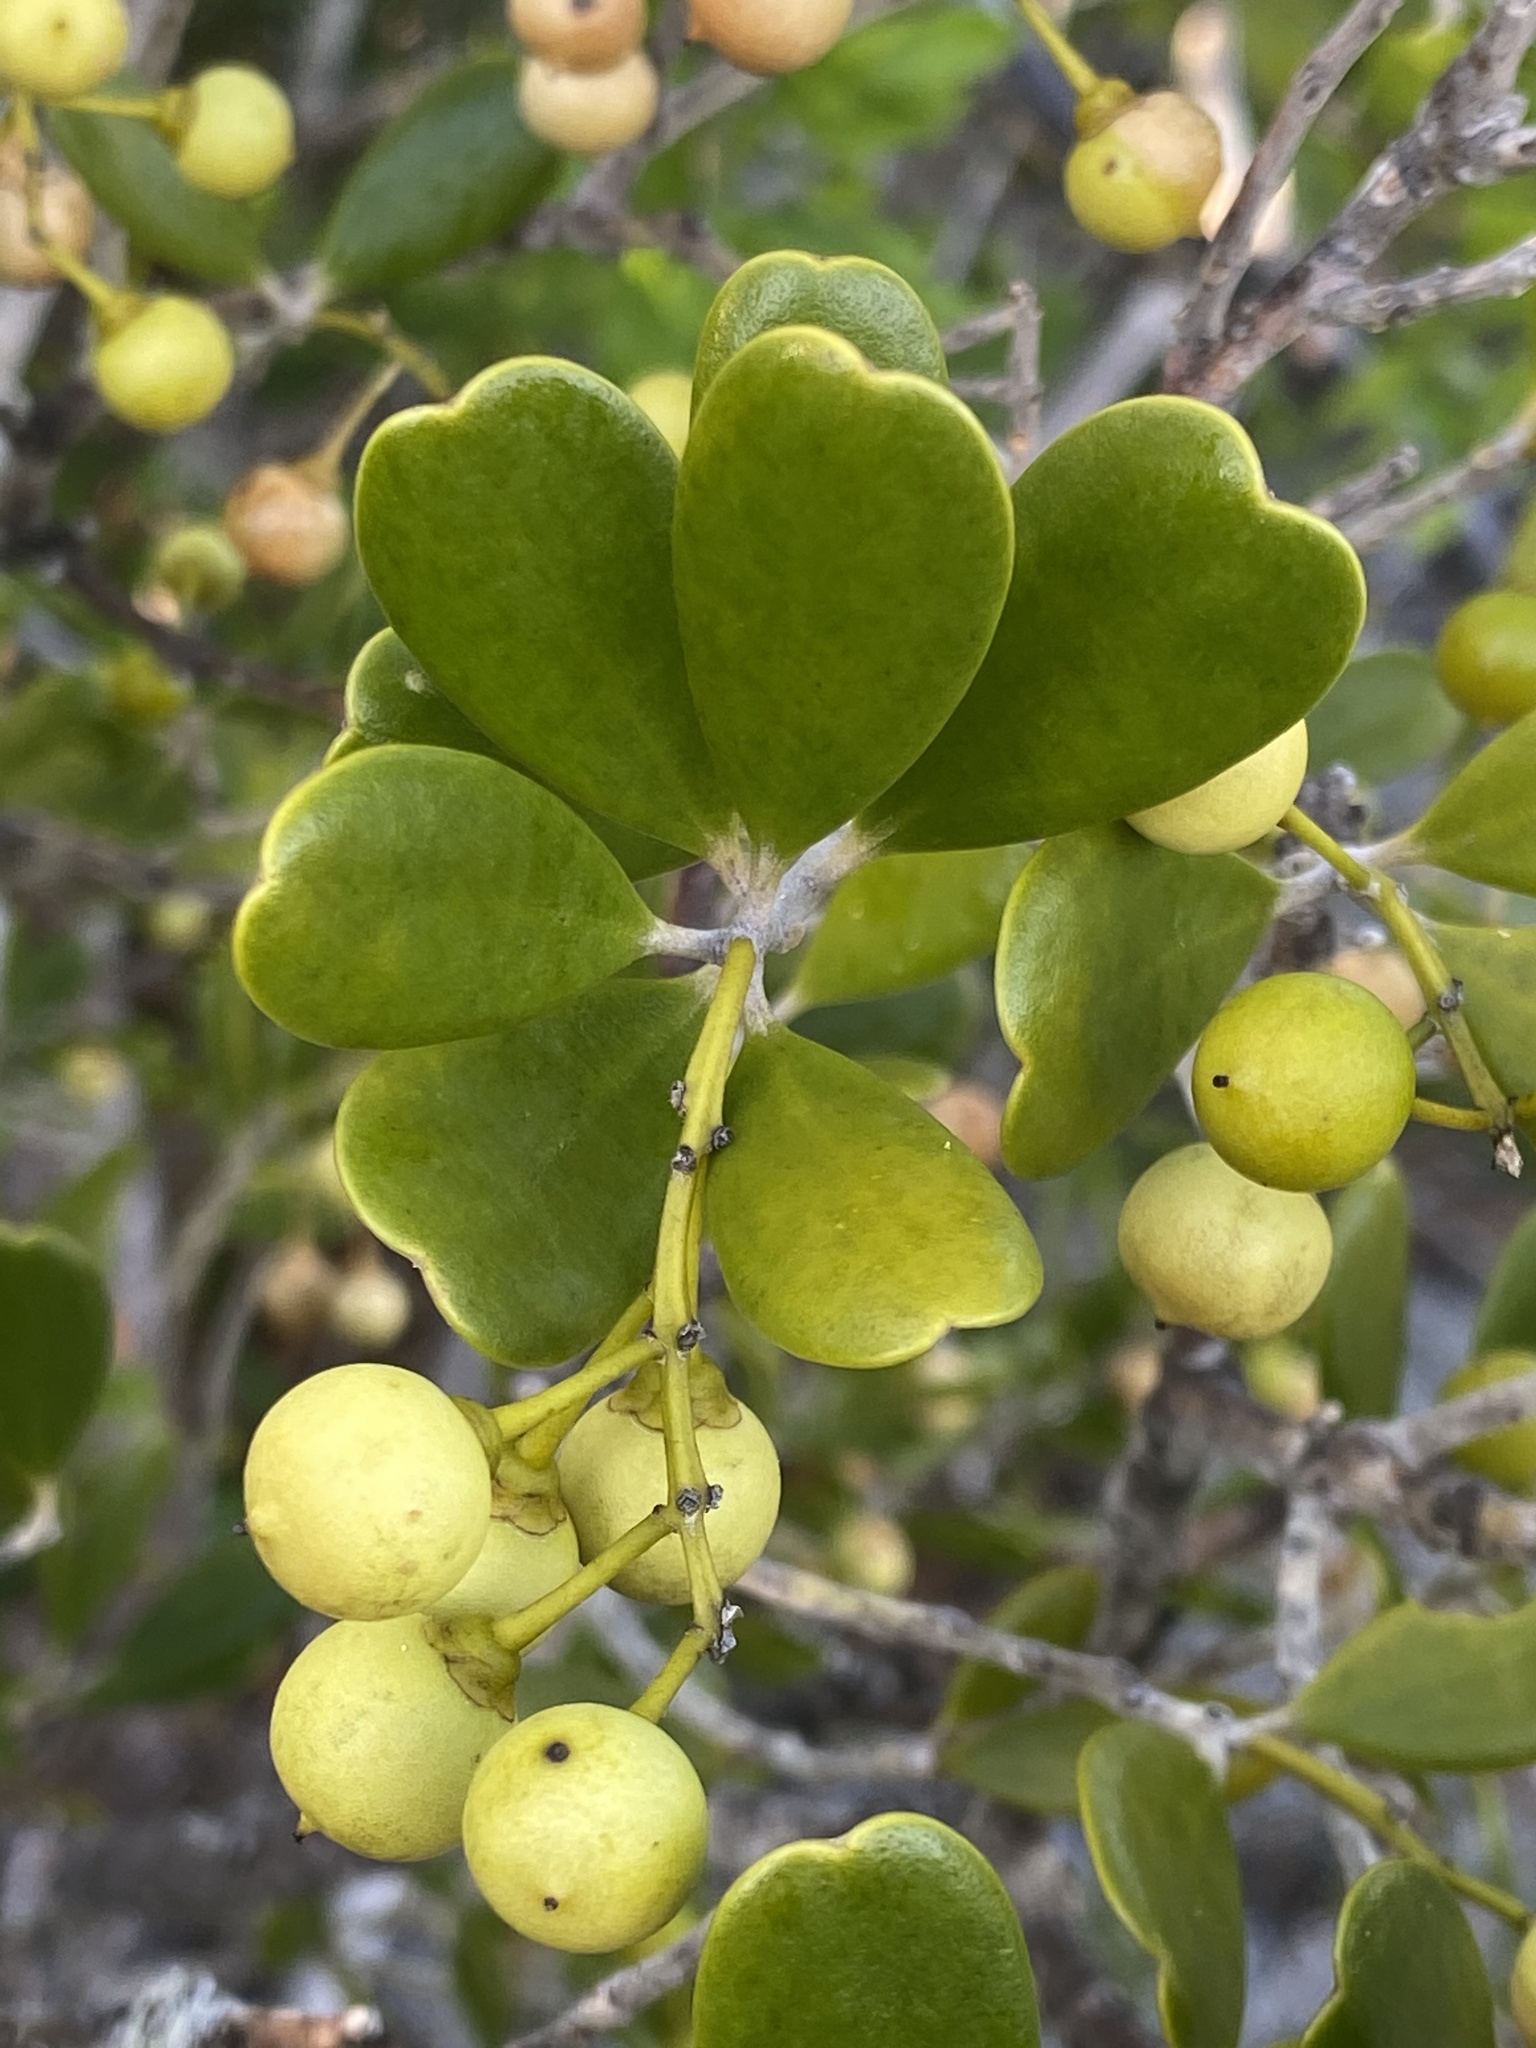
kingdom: Plantae
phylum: Tracheophyta
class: Magnoliopsida
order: Ericales
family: Primulaceae
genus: Jacquinia
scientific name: Jacquinia keyensis
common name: Joebush
